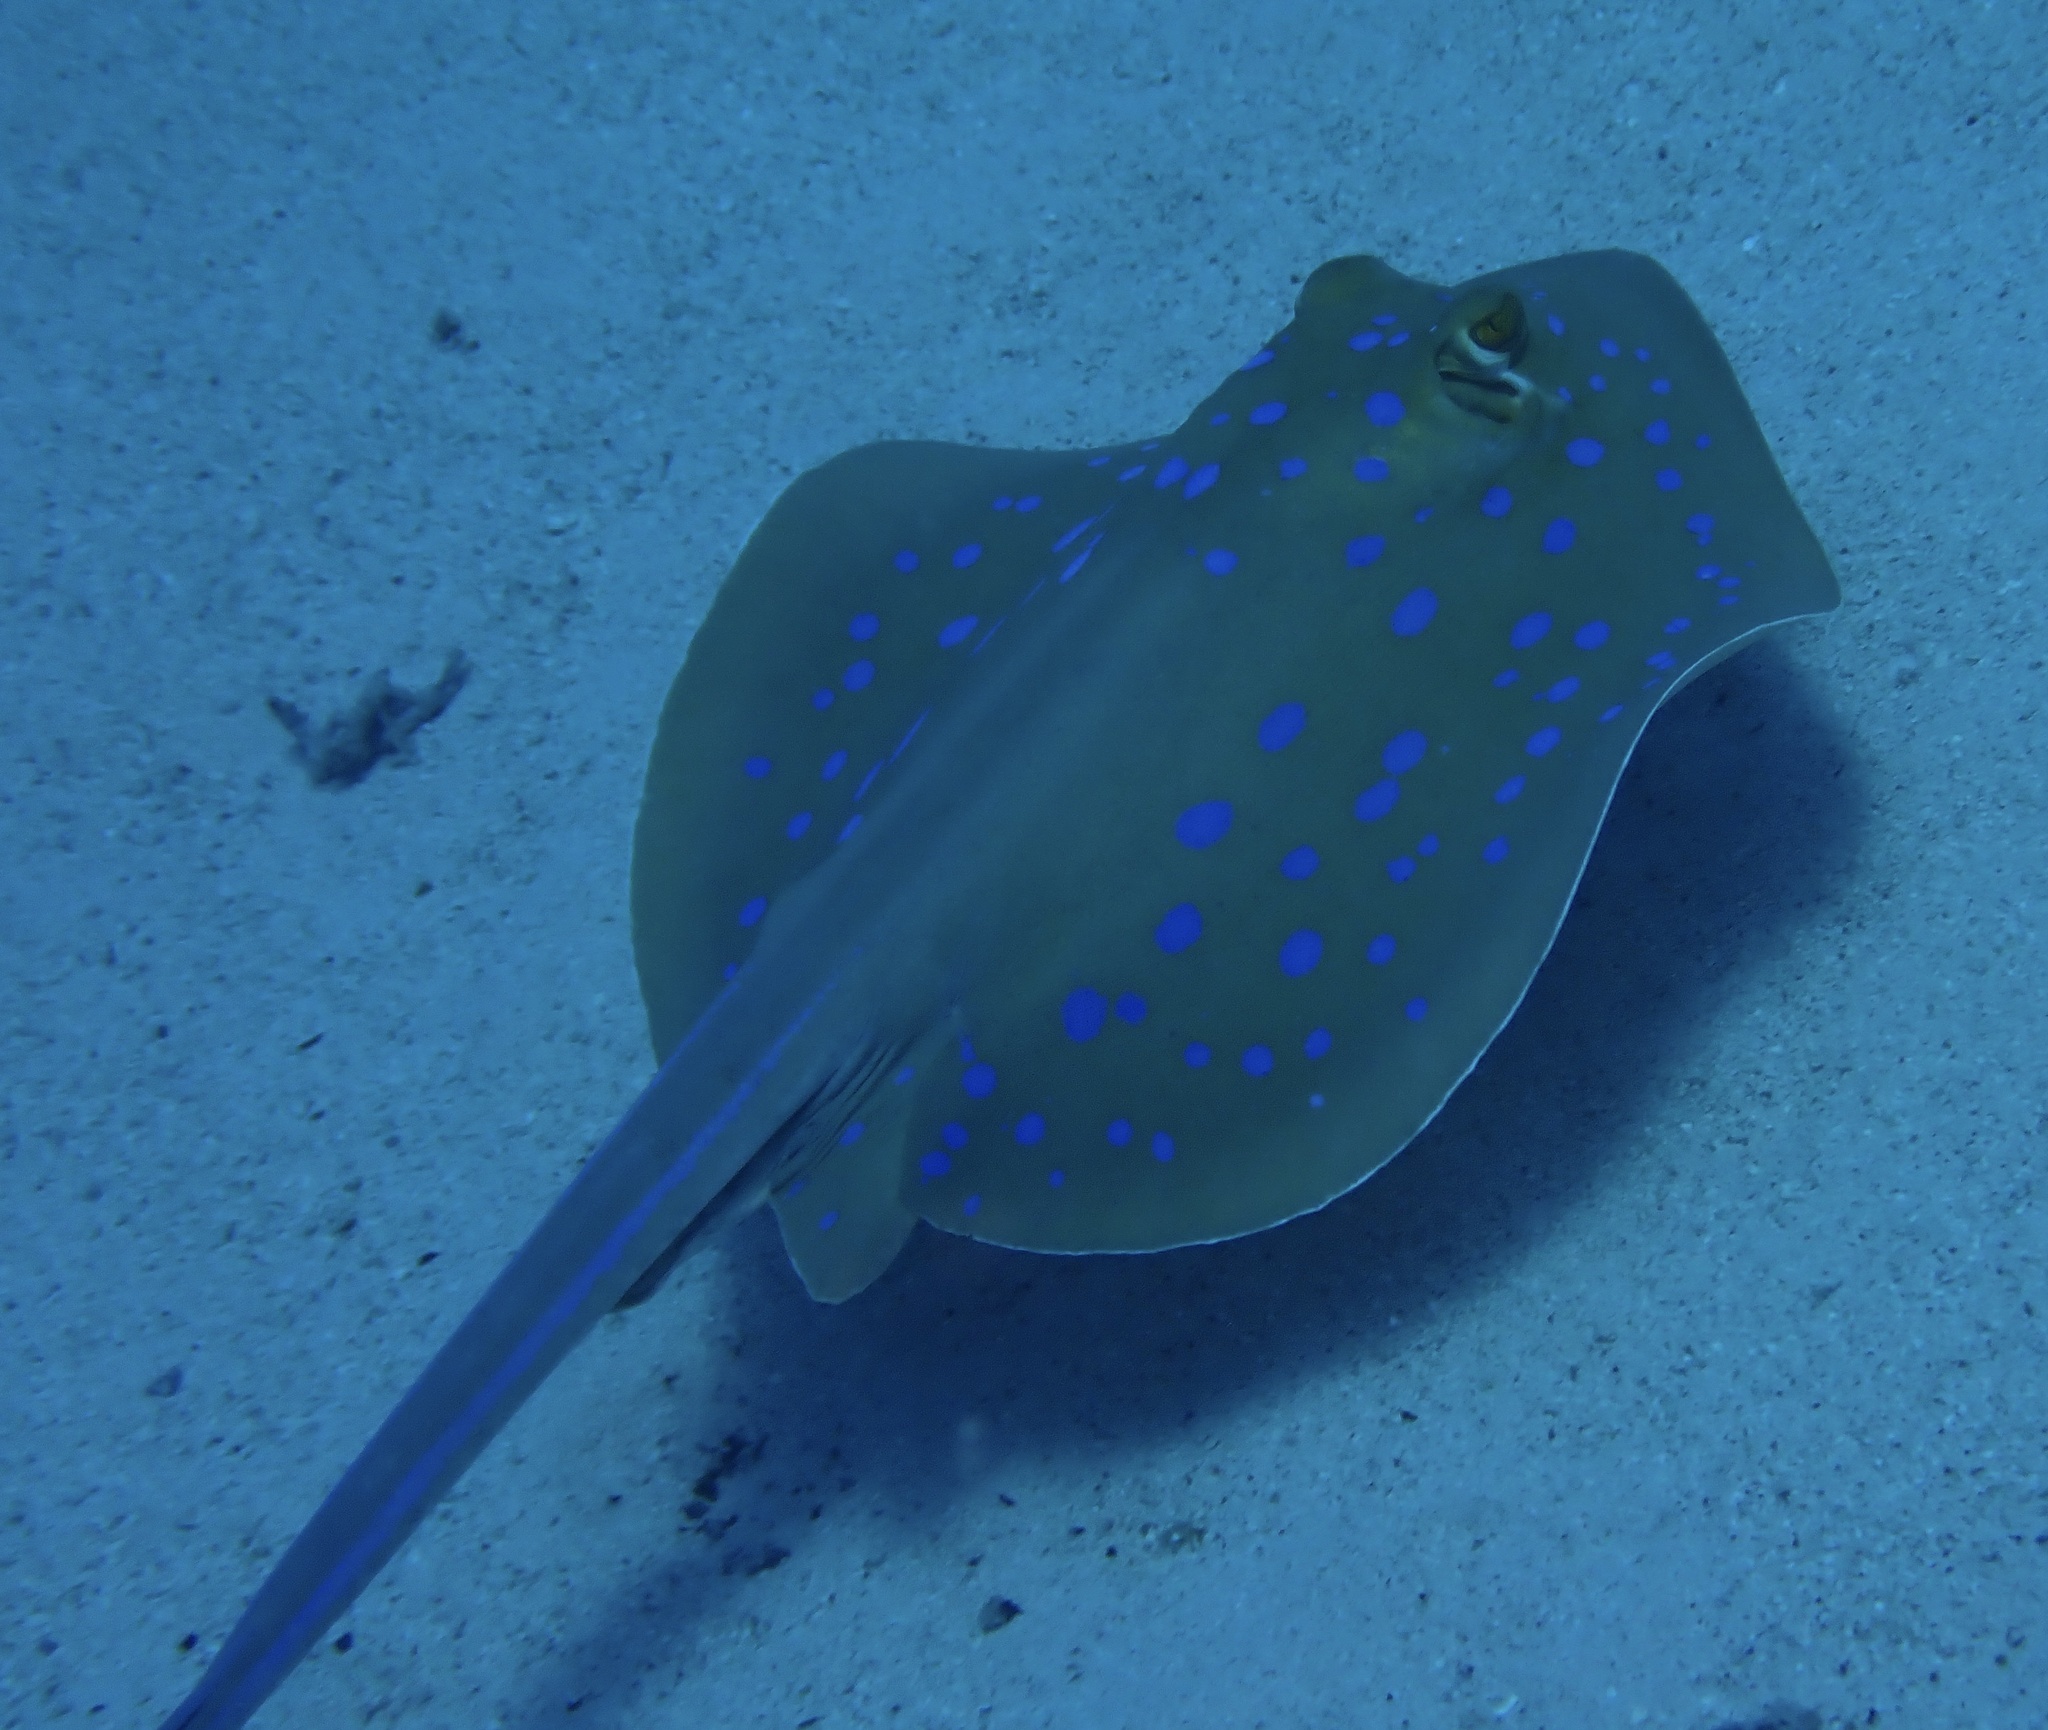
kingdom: Animalia
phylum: Chordata
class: Elasmobranchii
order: Myliobatiformes
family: Dasyatidae
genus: Taeniura
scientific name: Taeniura lymma
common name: Bluespotted ribbontail ray
